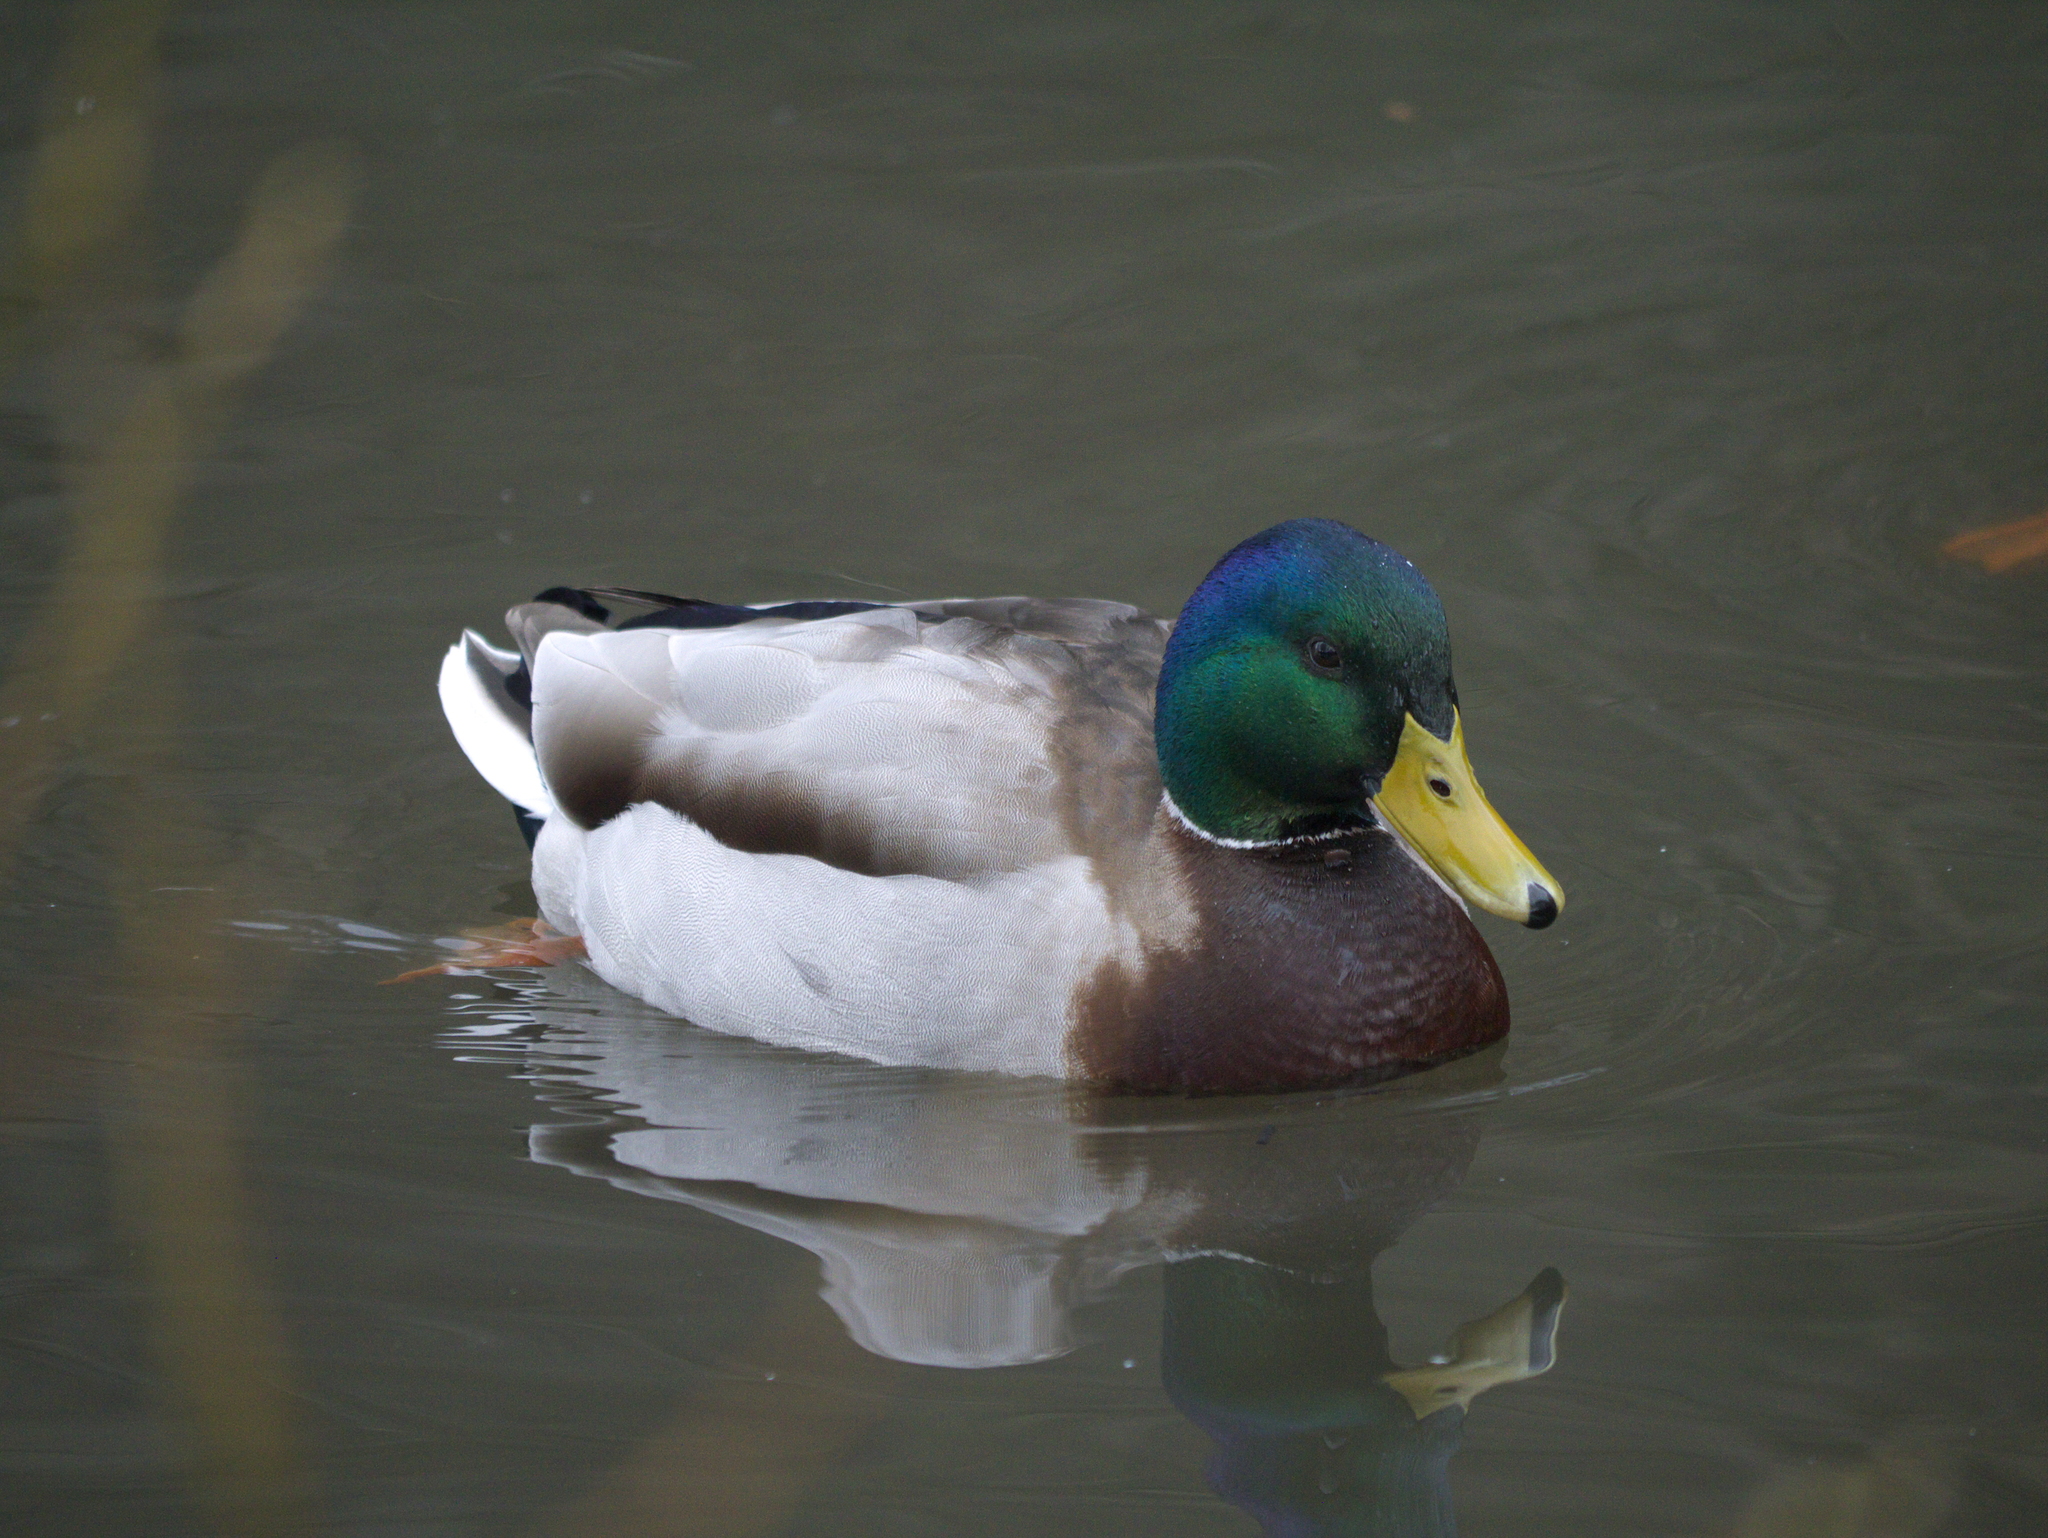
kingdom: Animalia
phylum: Chordata
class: Aves
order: Anseriformes
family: Anatidae
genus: Anas
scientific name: Anas platyrhynchos
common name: Mallard
